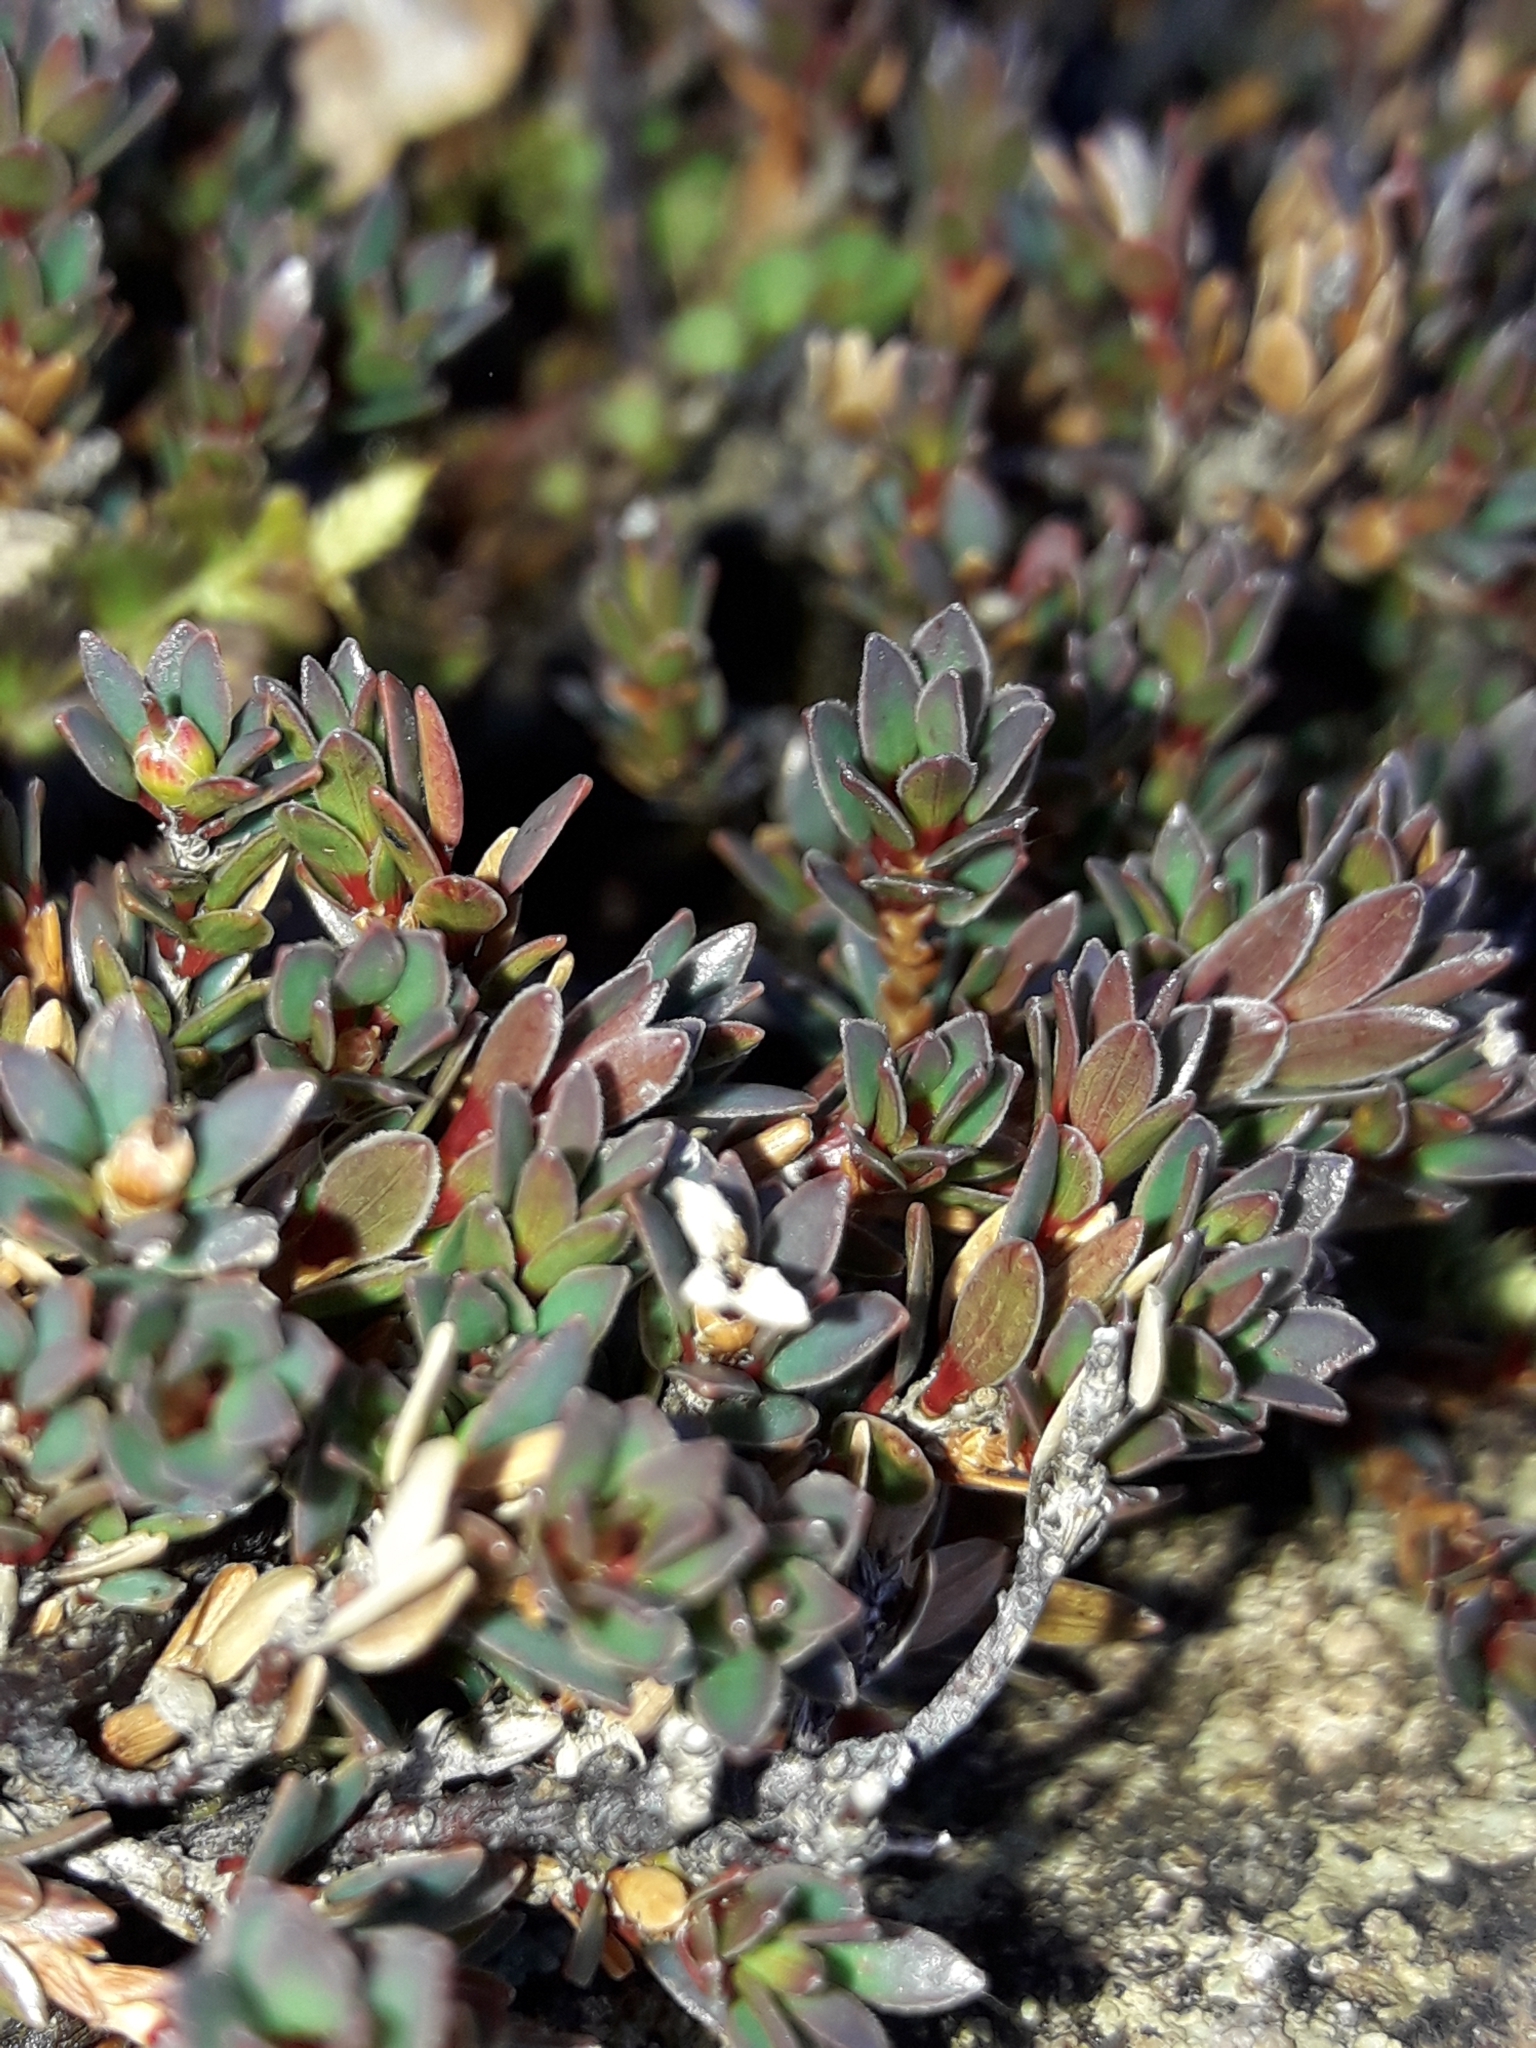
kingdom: Plantae
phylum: Tracheophyta
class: Magnoliopsida
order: Ericales
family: Ericaceae
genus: Pentachondra
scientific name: Pentachondra pumila
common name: Carpet-heath
